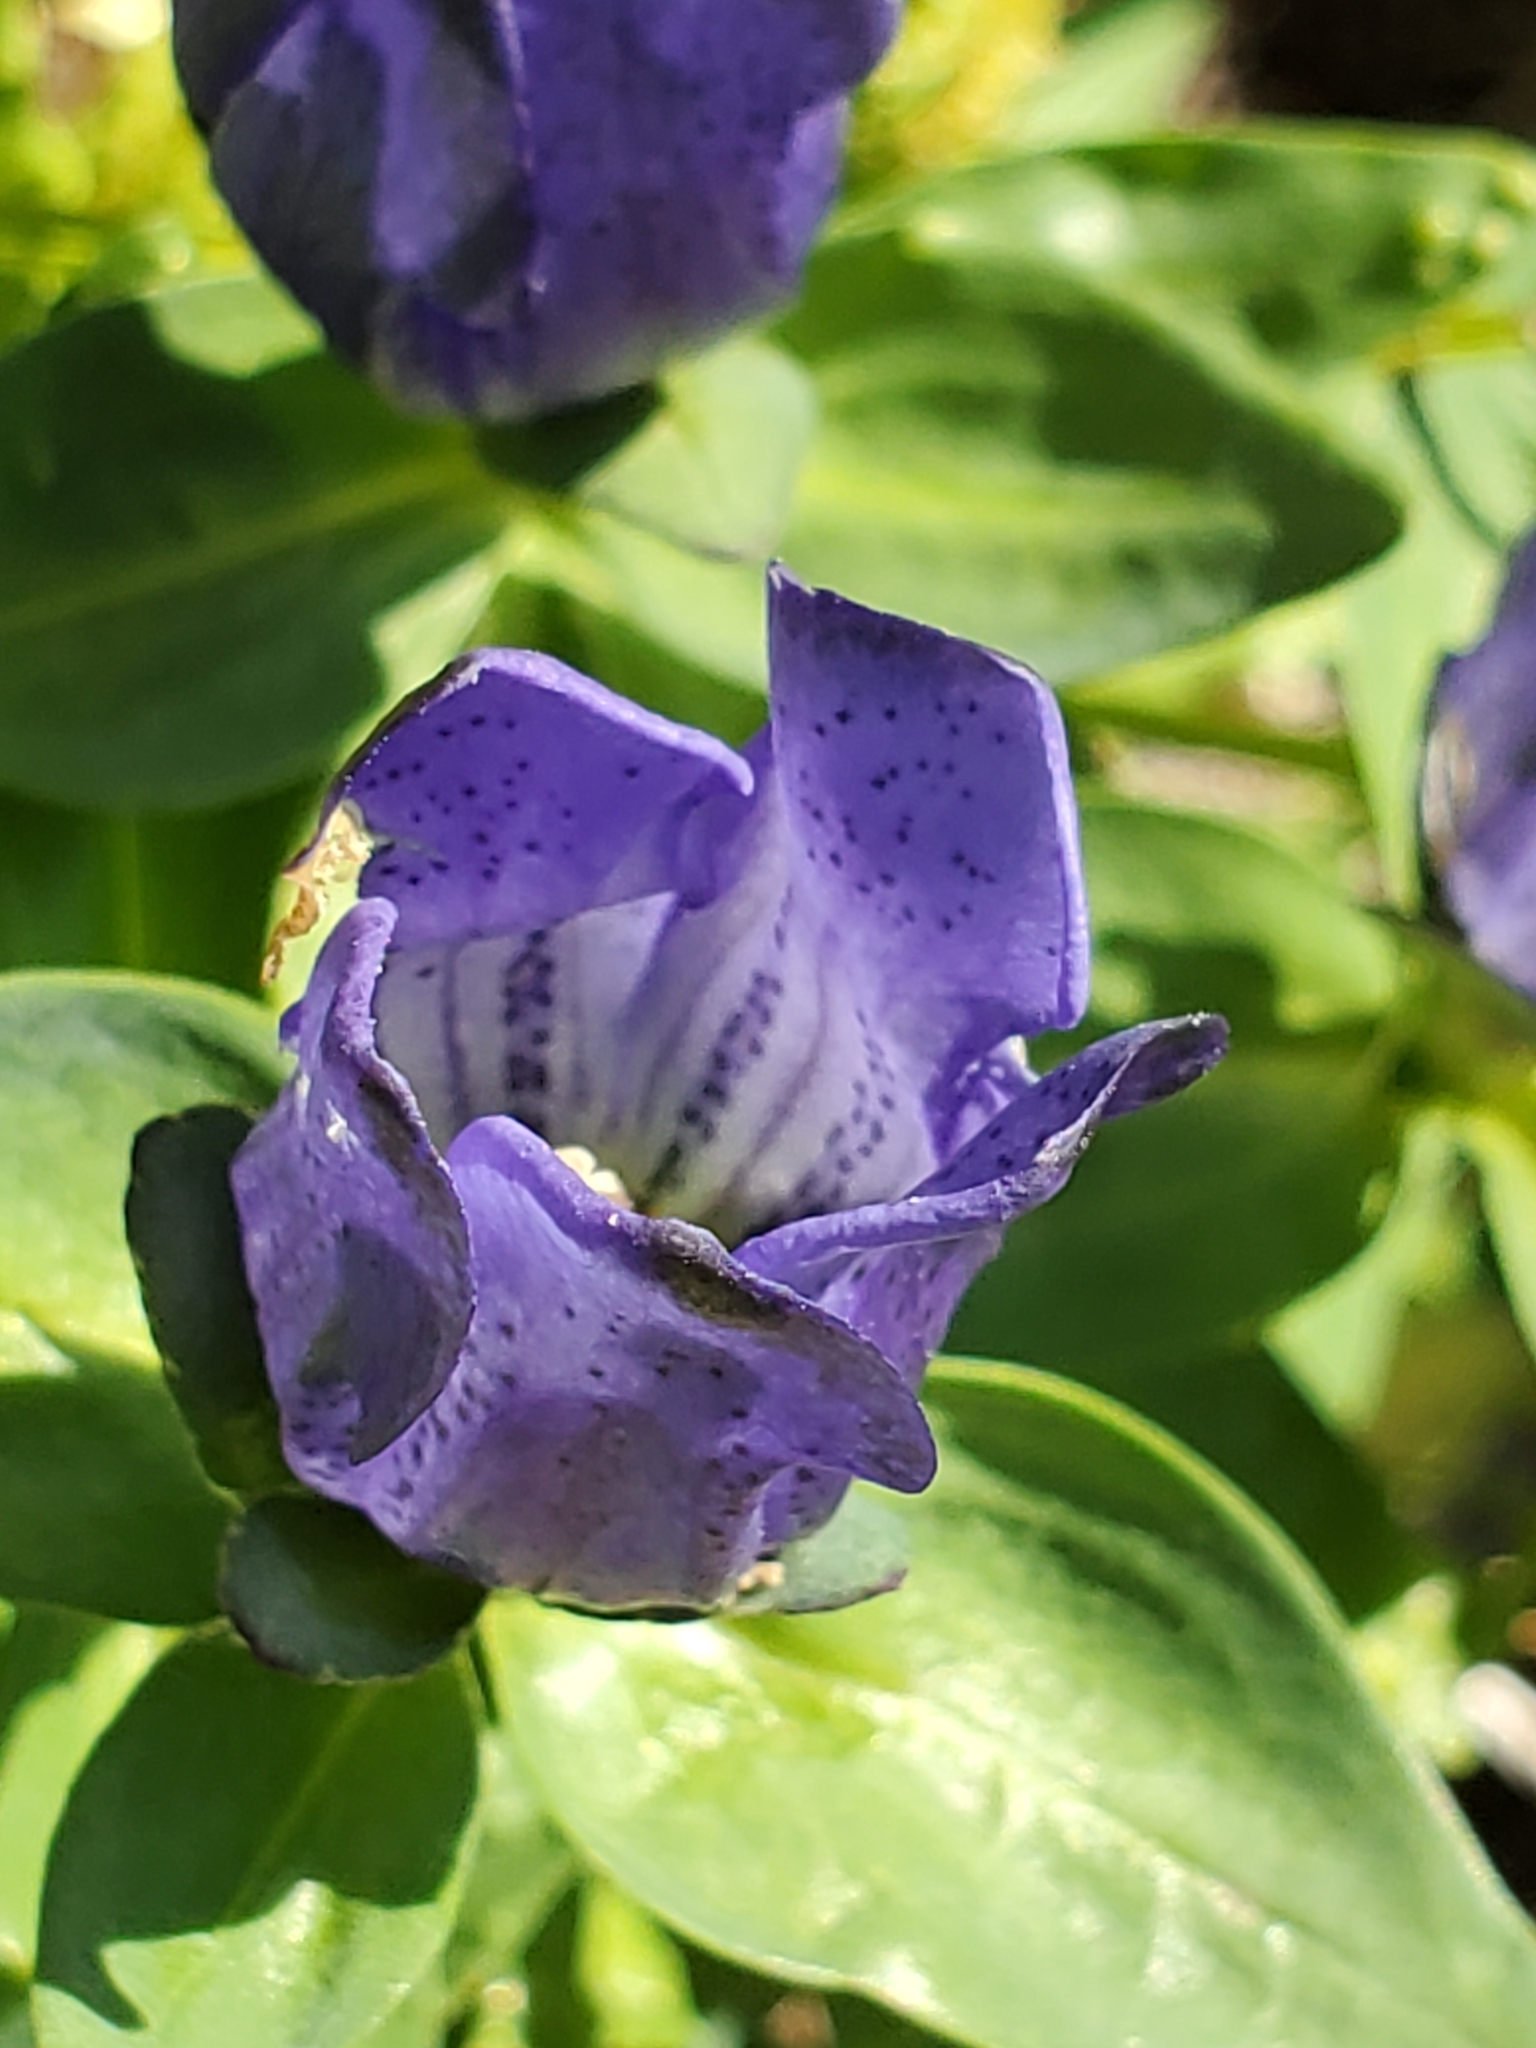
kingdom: Plantae
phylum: Tracheophyta
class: Magnoliopsida
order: Gentianales
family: Gentianaceae
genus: Gentiana
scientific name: Gentiana sceptrum
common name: Pacific gentian
